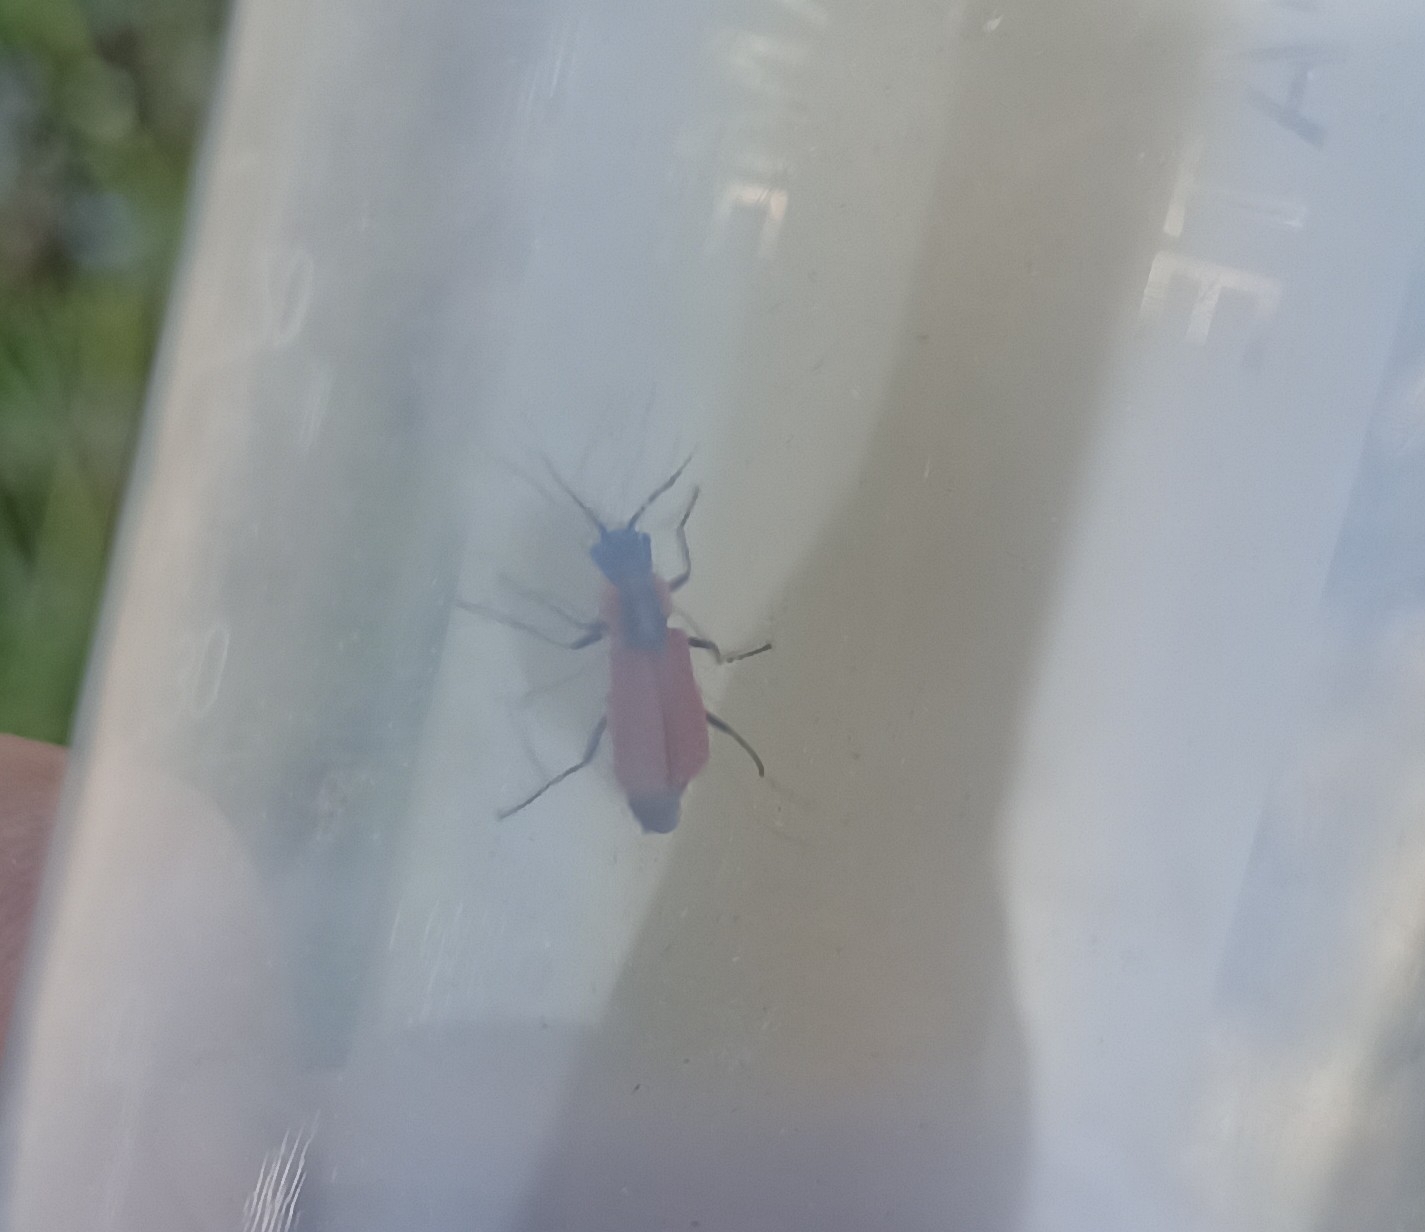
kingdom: Animalia
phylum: Arthropoda
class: Insecta
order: Coleoptera
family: Malachiidae
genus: Clanoptilus
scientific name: Clanoptilus rufus
